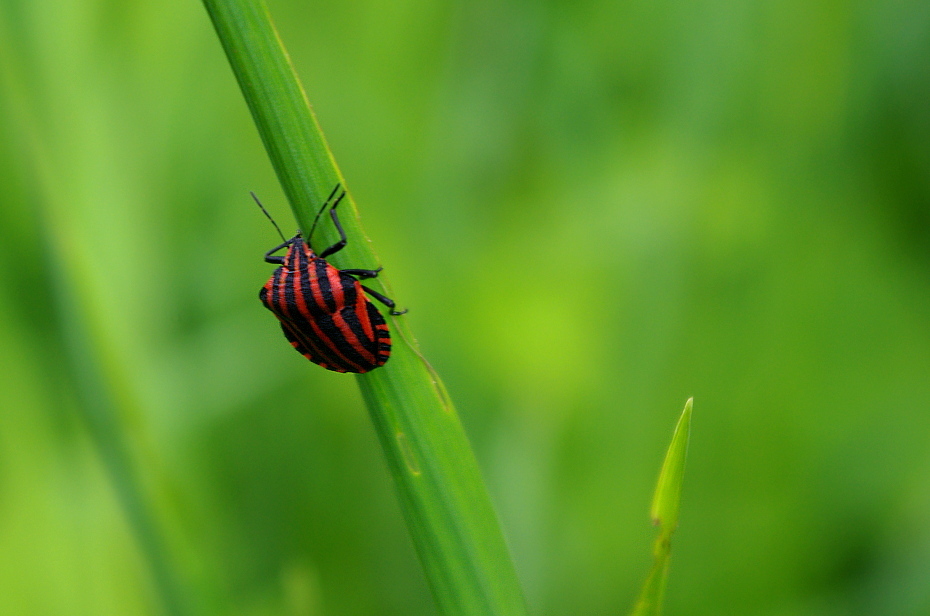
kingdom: Animalia
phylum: Arthropoda
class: Insecta
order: Hemiptera
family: Pentatomidae
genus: Graphosoma
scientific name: Graphosoma italicum
